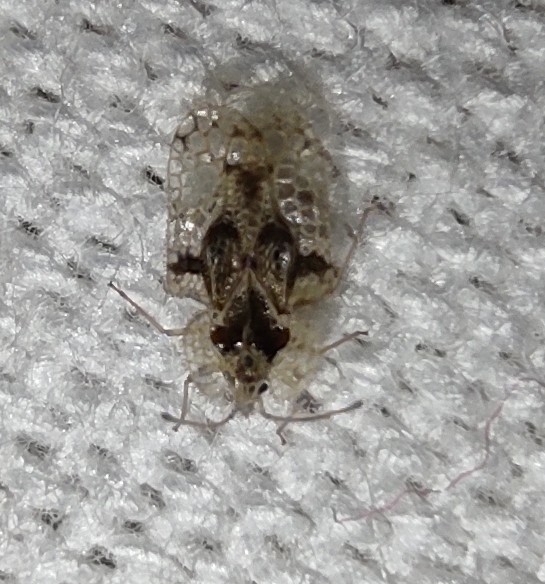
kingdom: Animalia
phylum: Arthropoda
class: Insecta
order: Hemiptera
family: Tingidae
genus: Corythucha
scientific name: Corythucha arcuata
